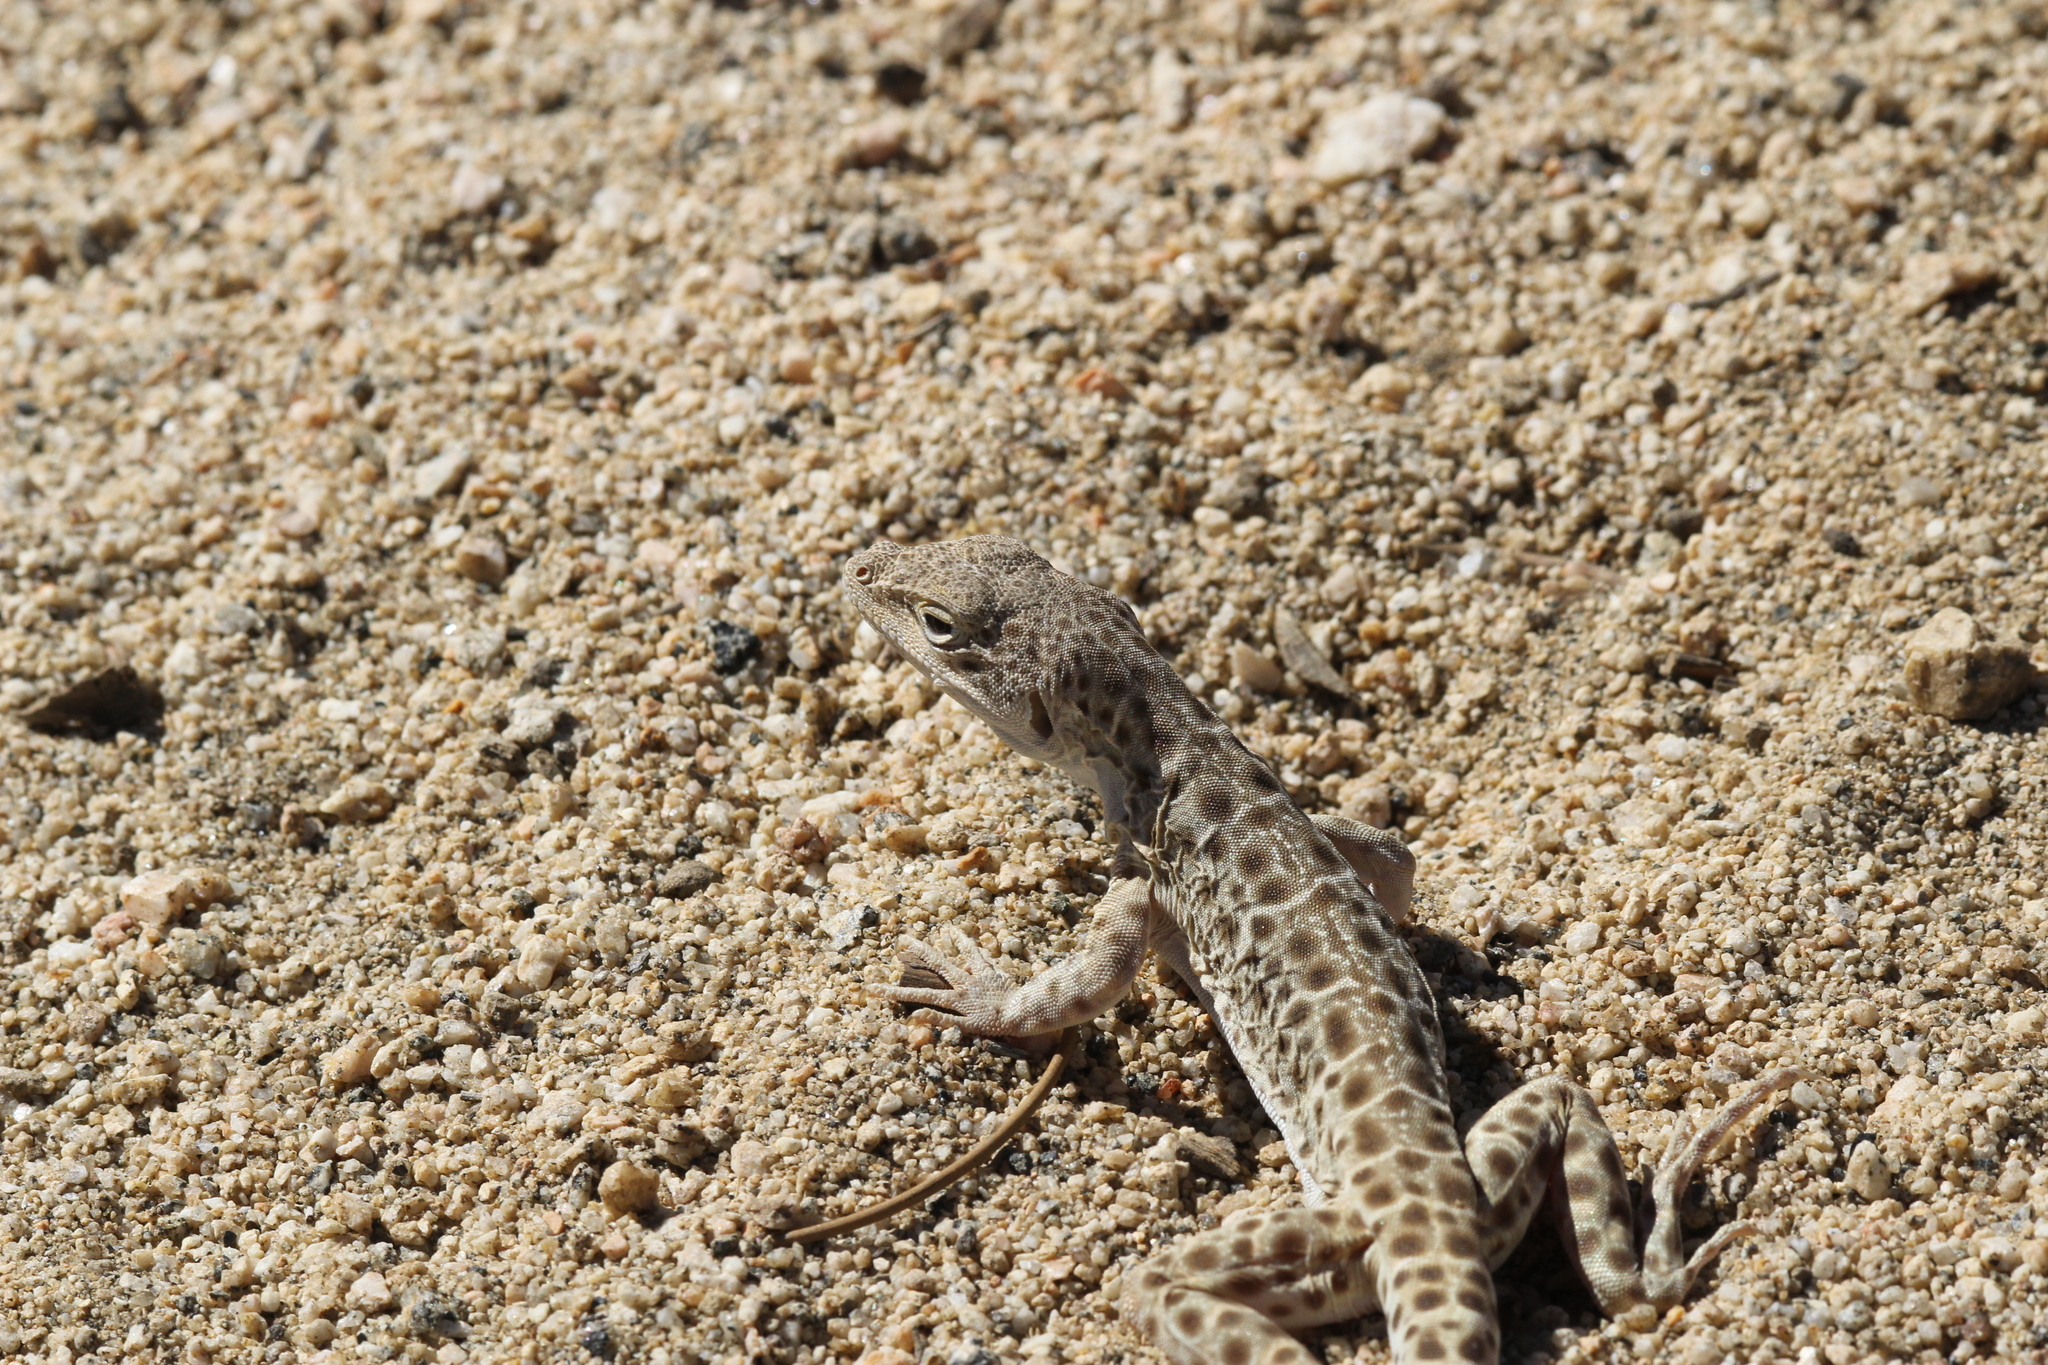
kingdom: Animalia
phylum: Chordata
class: Squamata
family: Crotaphytidae
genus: Gambelia
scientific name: Gambelia wislizenii
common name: Longnose leopard lizard
